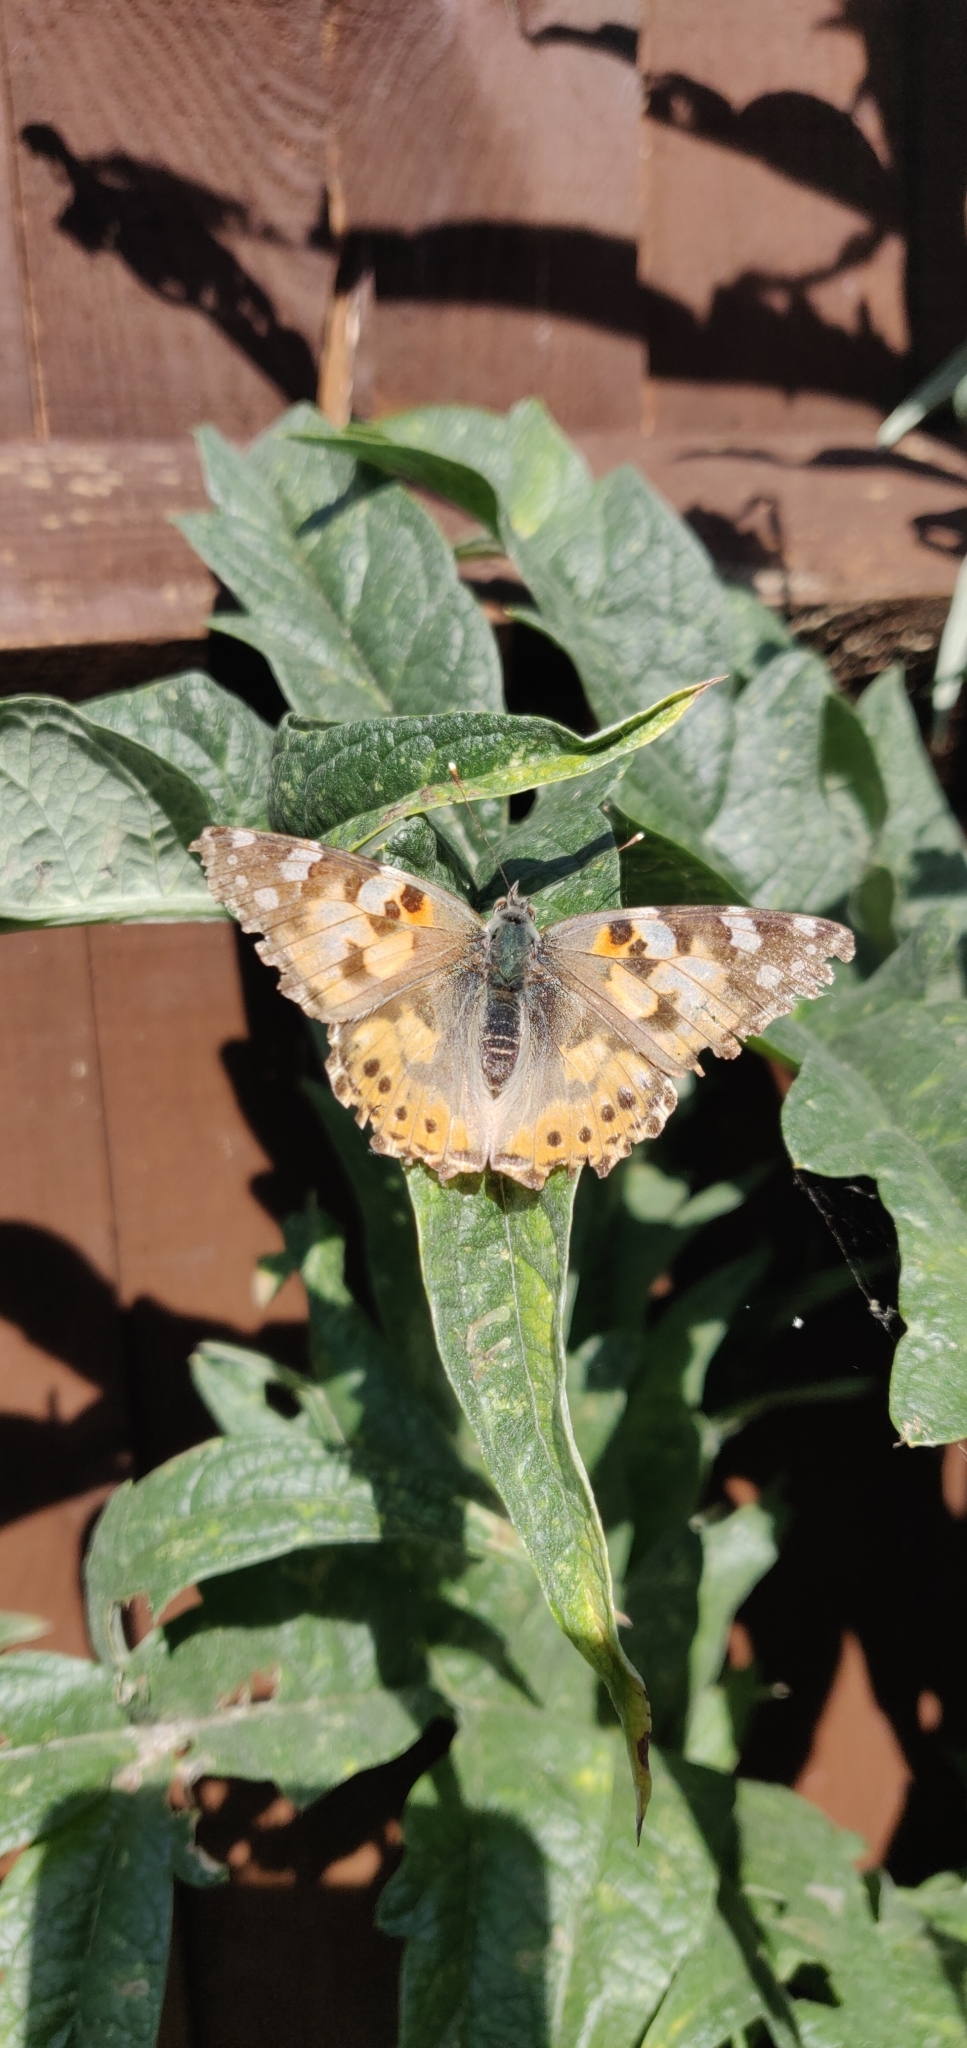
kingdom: Animalia
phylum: Arthropoda
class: Insecta
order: Lepidoptera
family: Nymphalidae
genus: Vanessa
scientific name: Vanessa cardui
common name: Painted lady
